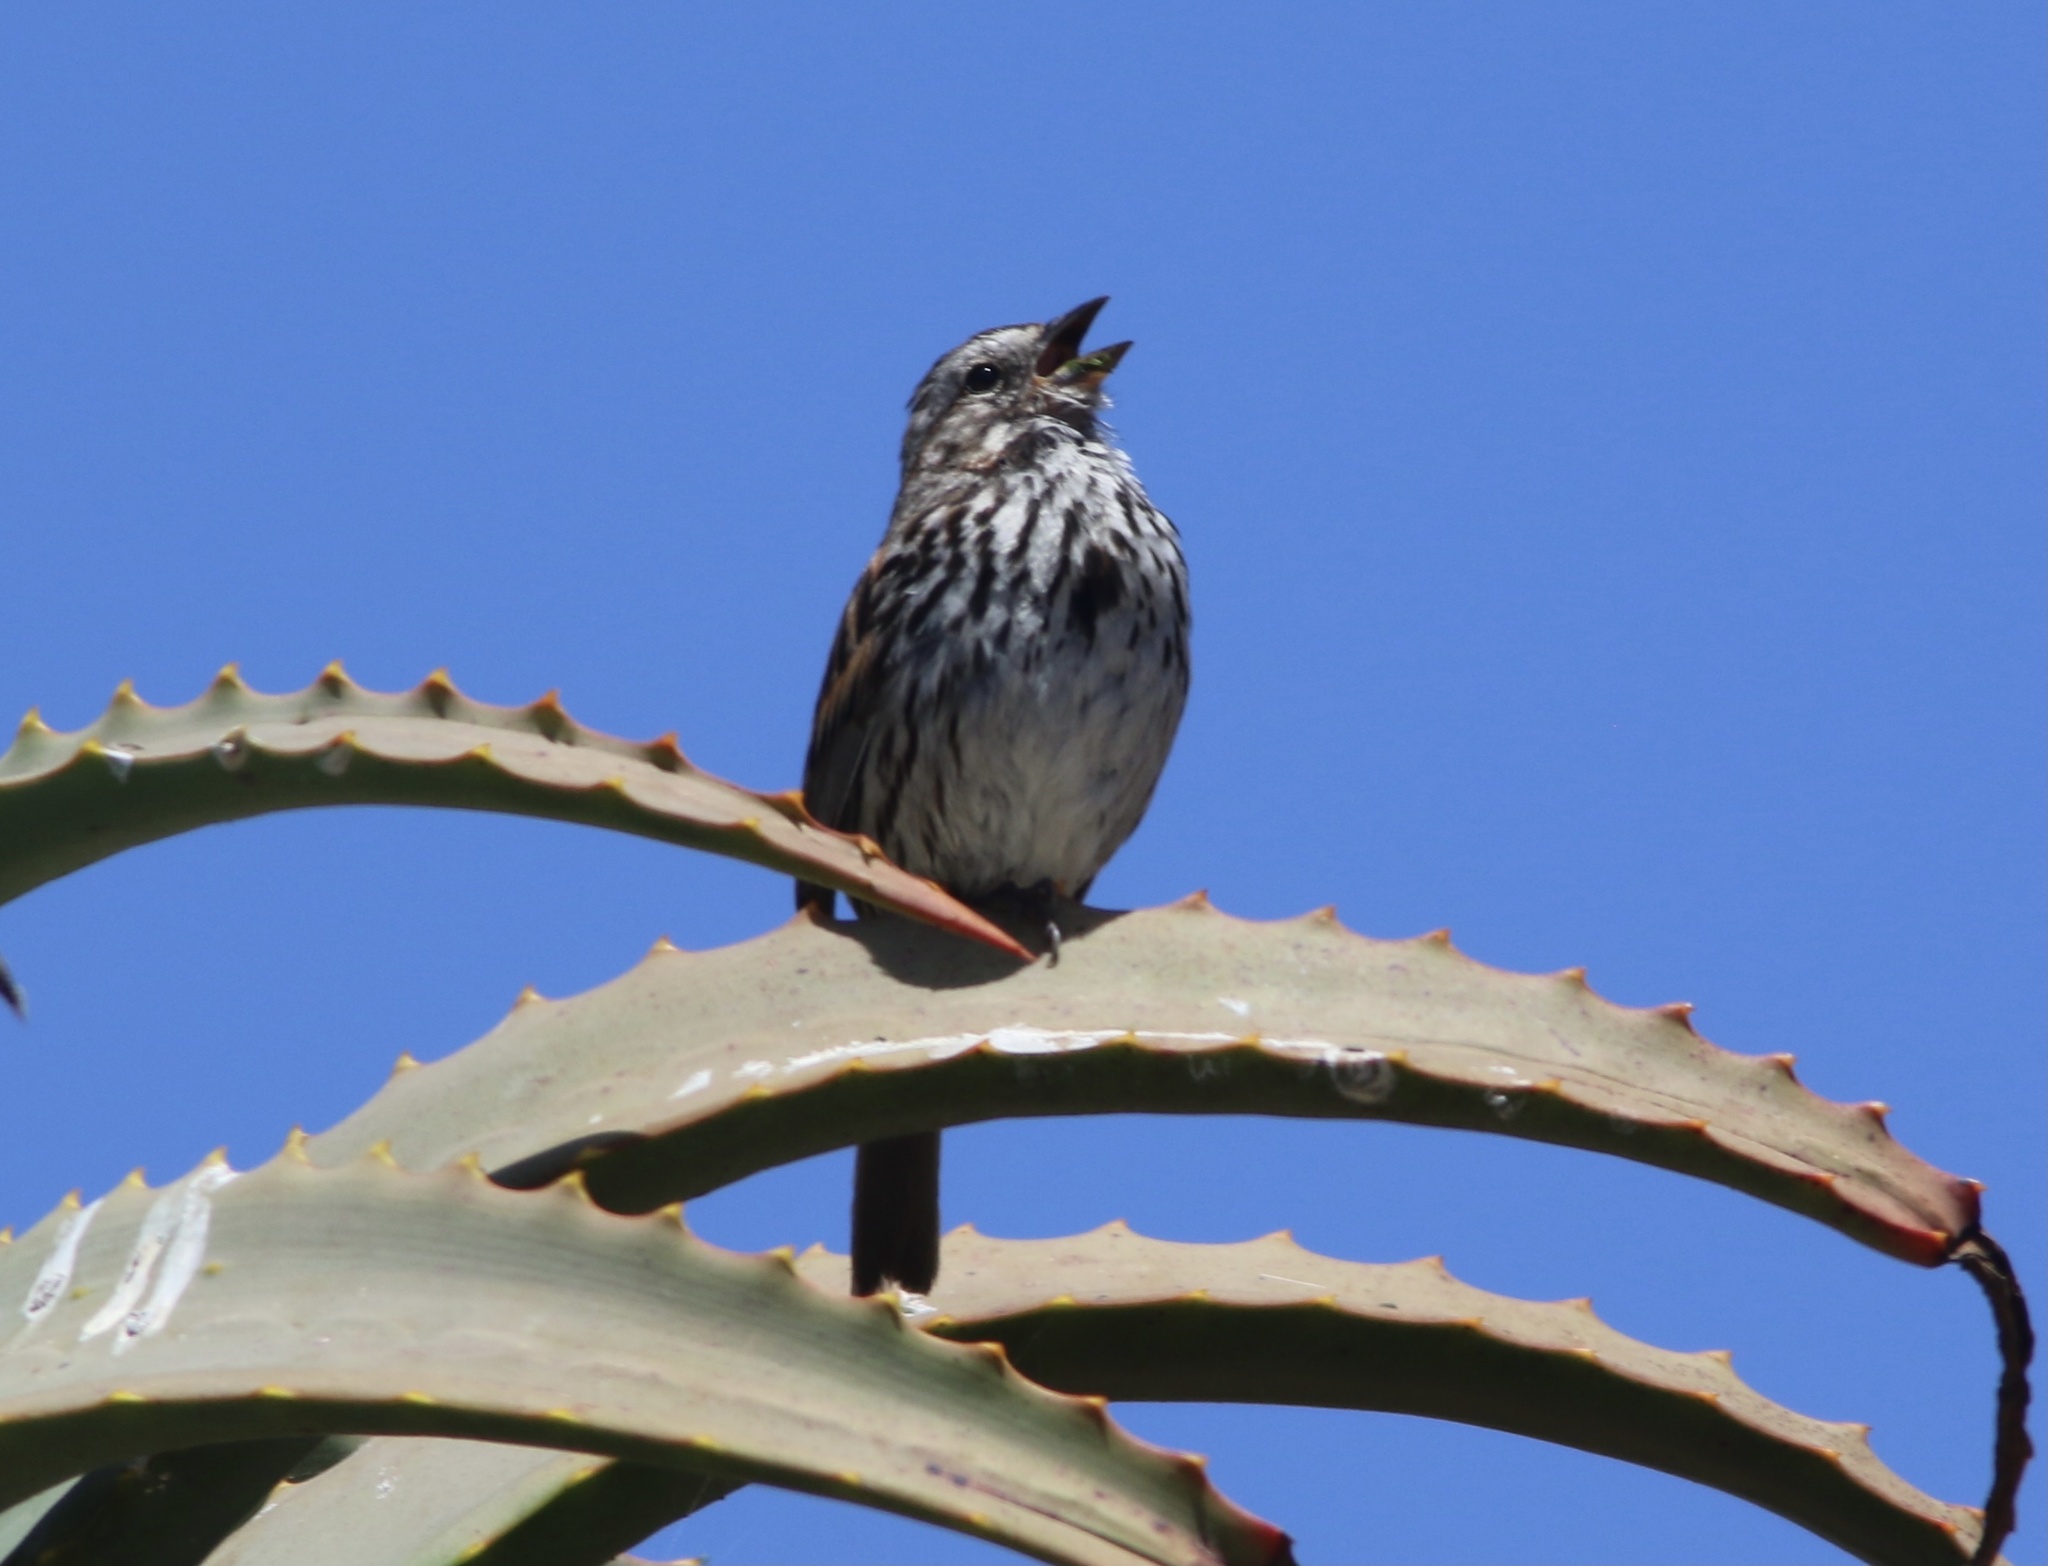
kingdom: Animalia
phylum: Chordata
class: Aves
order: Passeriformes
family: Passerellidae
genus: Melospiza
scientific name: Melospiza melodia
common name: Song sparrow
